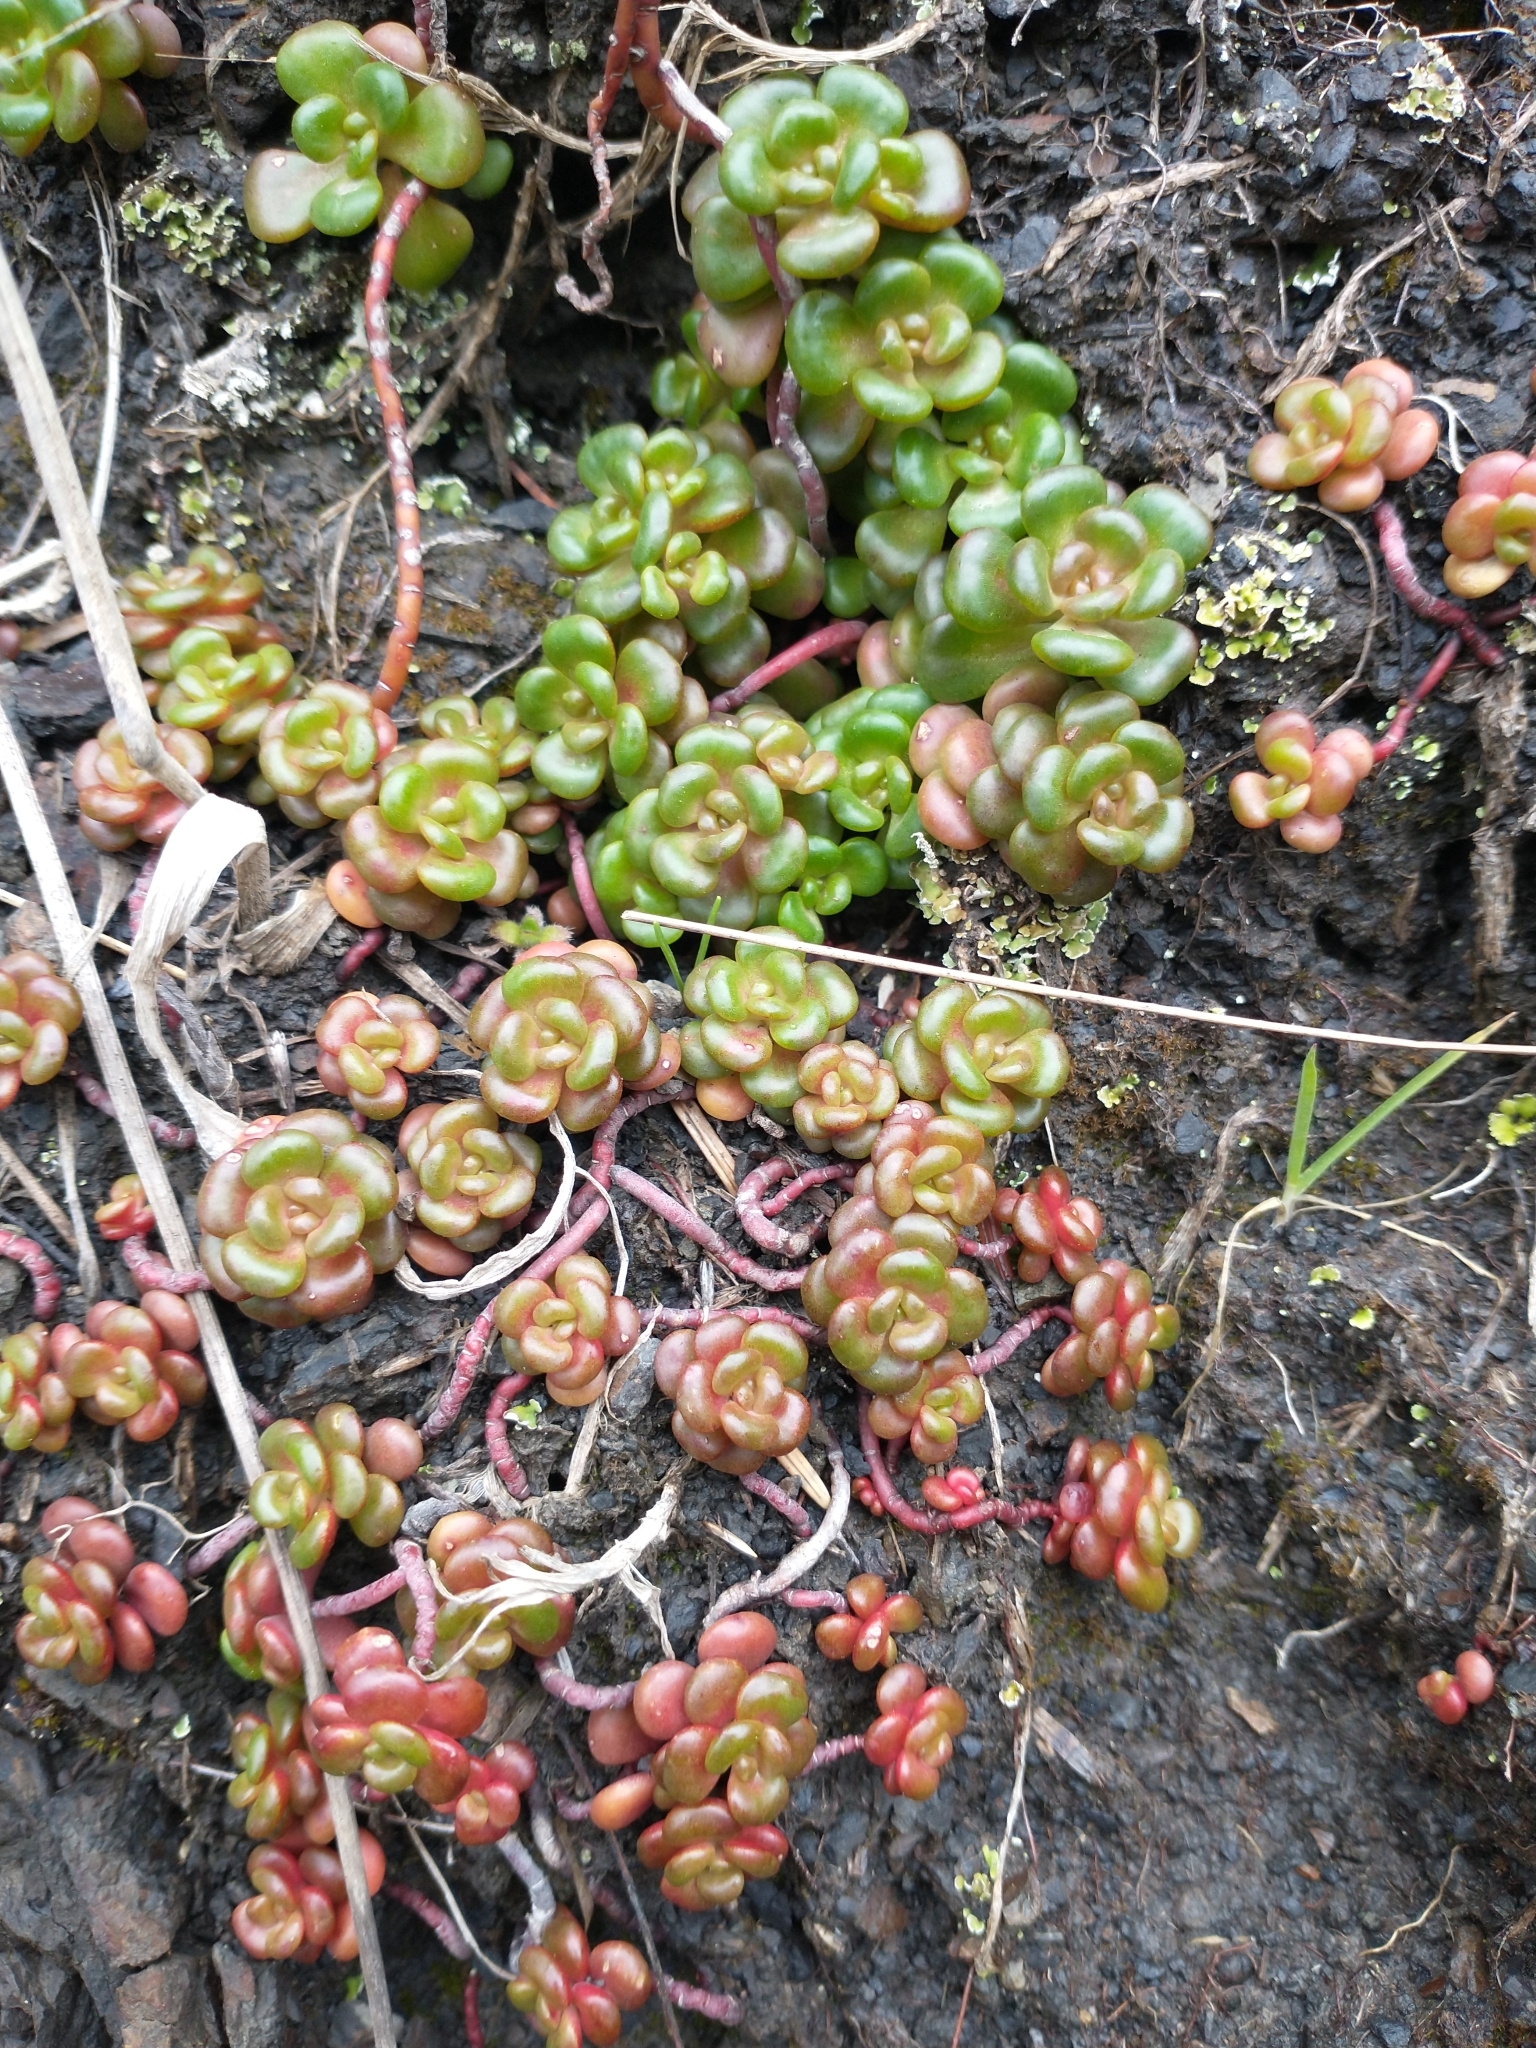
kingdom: Plantae
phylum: Tracheophyta
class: Magnoliopsida
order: Saxifragales
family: Crassulaceae
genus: Sedum
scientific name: Sedum oreganum
